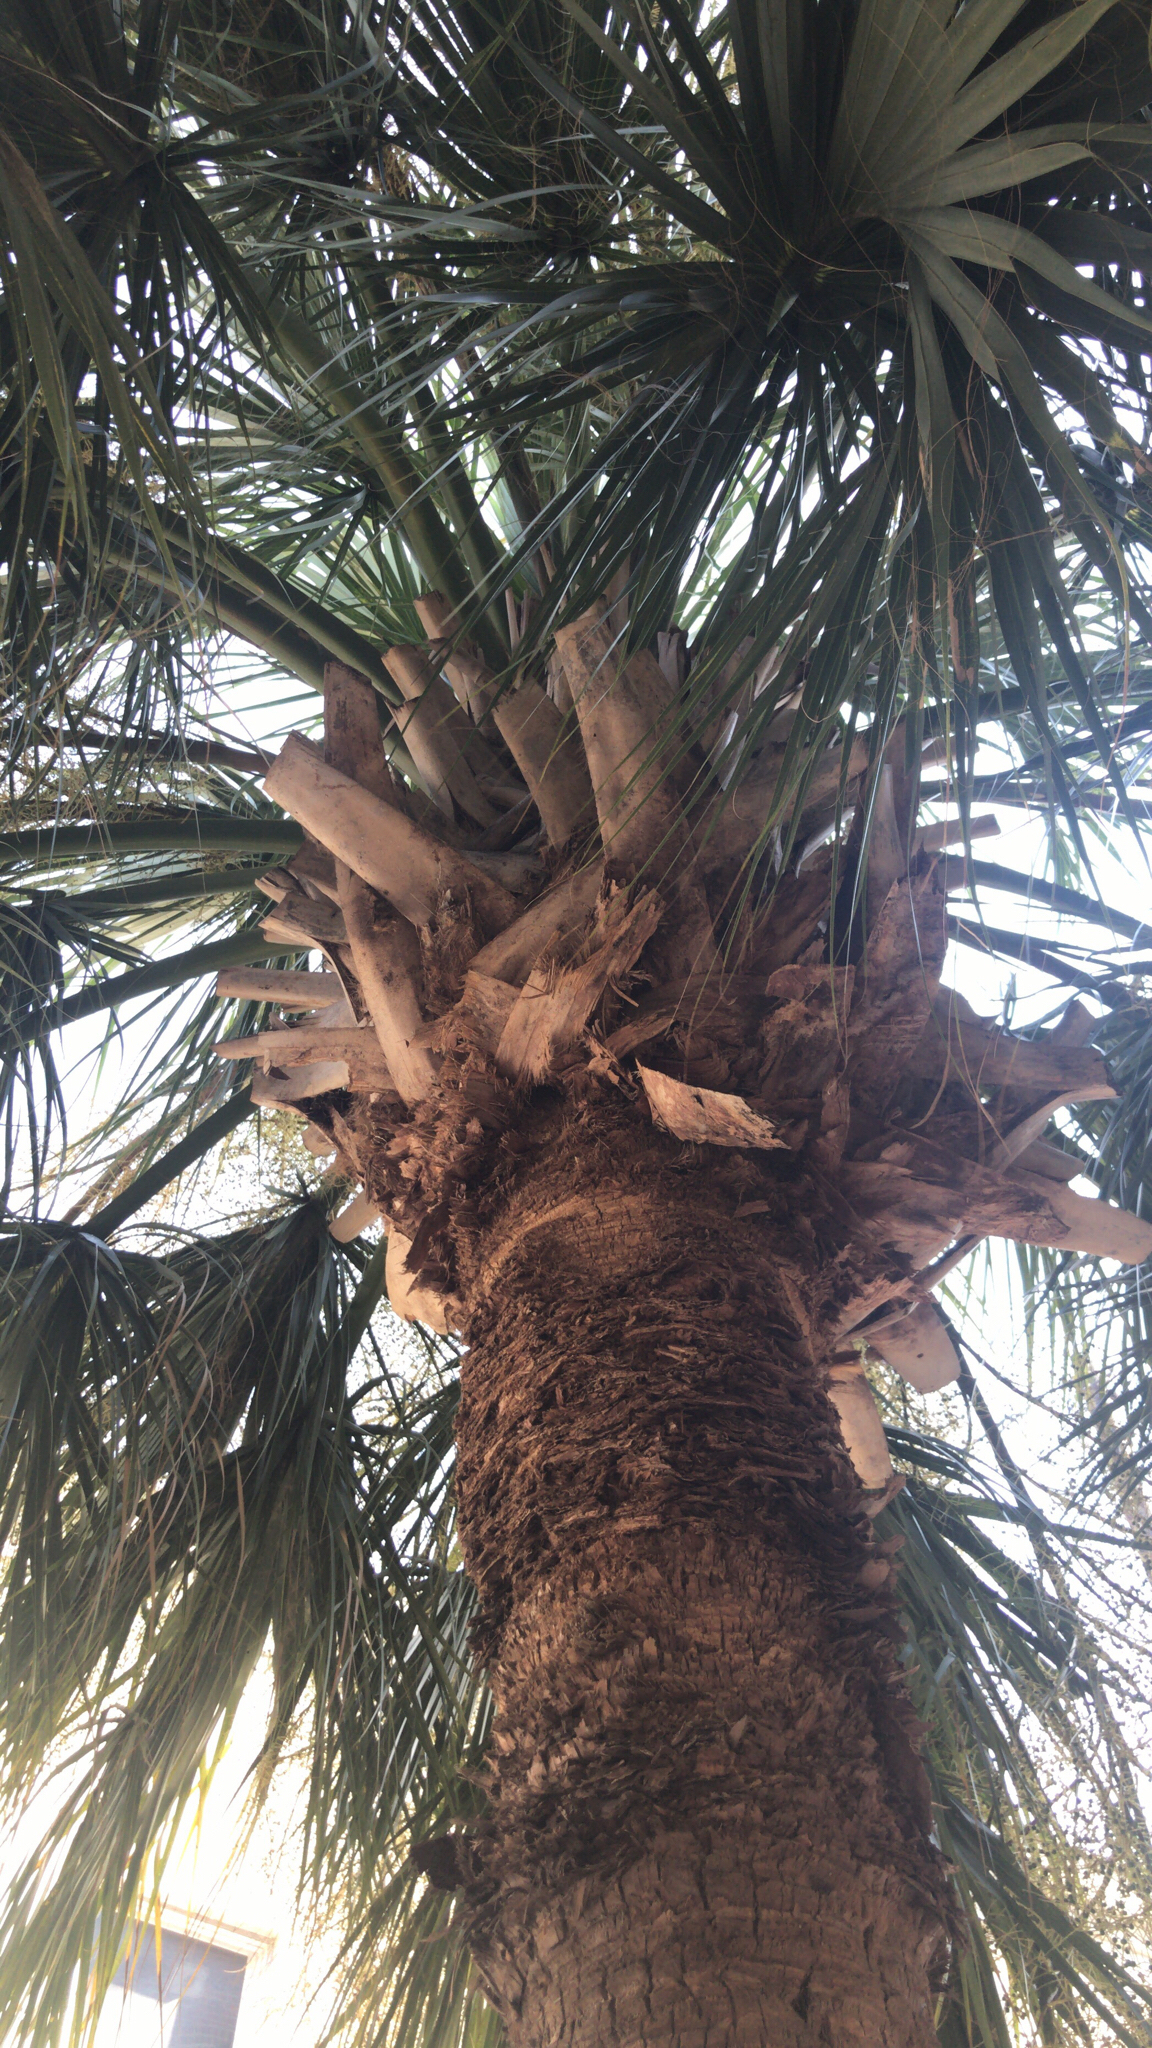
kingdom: Plantae
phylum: Tracheophyta
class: Liliopsida
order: Arecales
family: Arecaceae
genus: Sabal
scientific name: Sabal palmetto
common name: Blue palmetto
